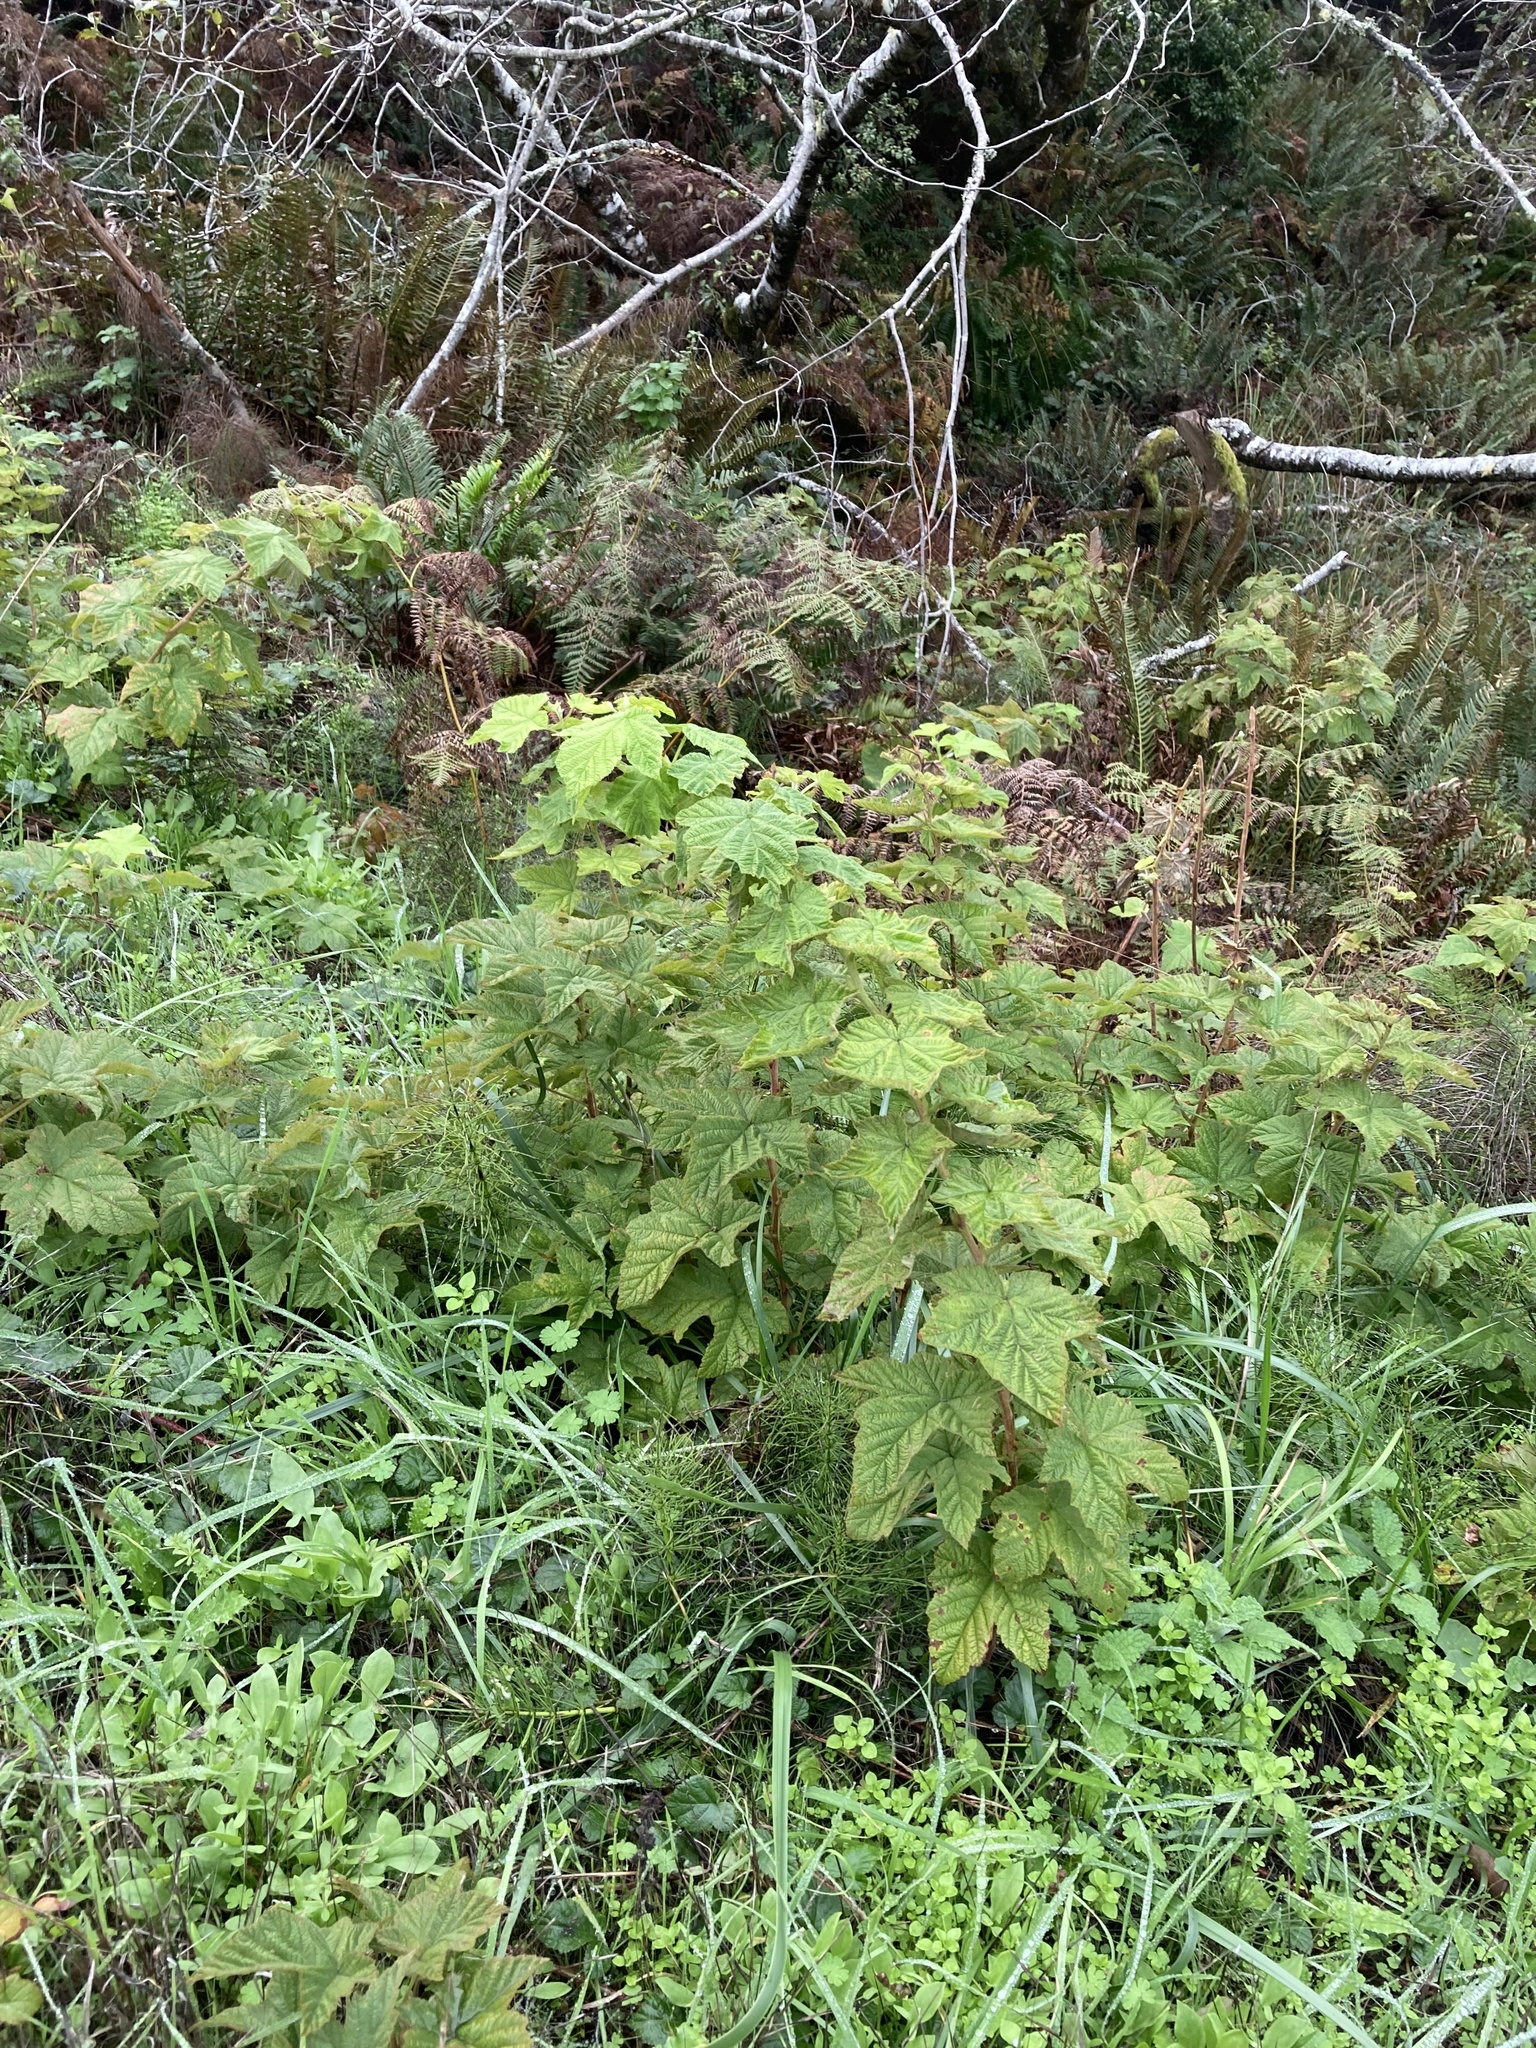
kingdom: Plantae
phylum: Tracheophyta
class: Magnoliopsida
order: Rosales
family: Rosaceae
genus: Rubus
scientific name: Rubus parviflorus
